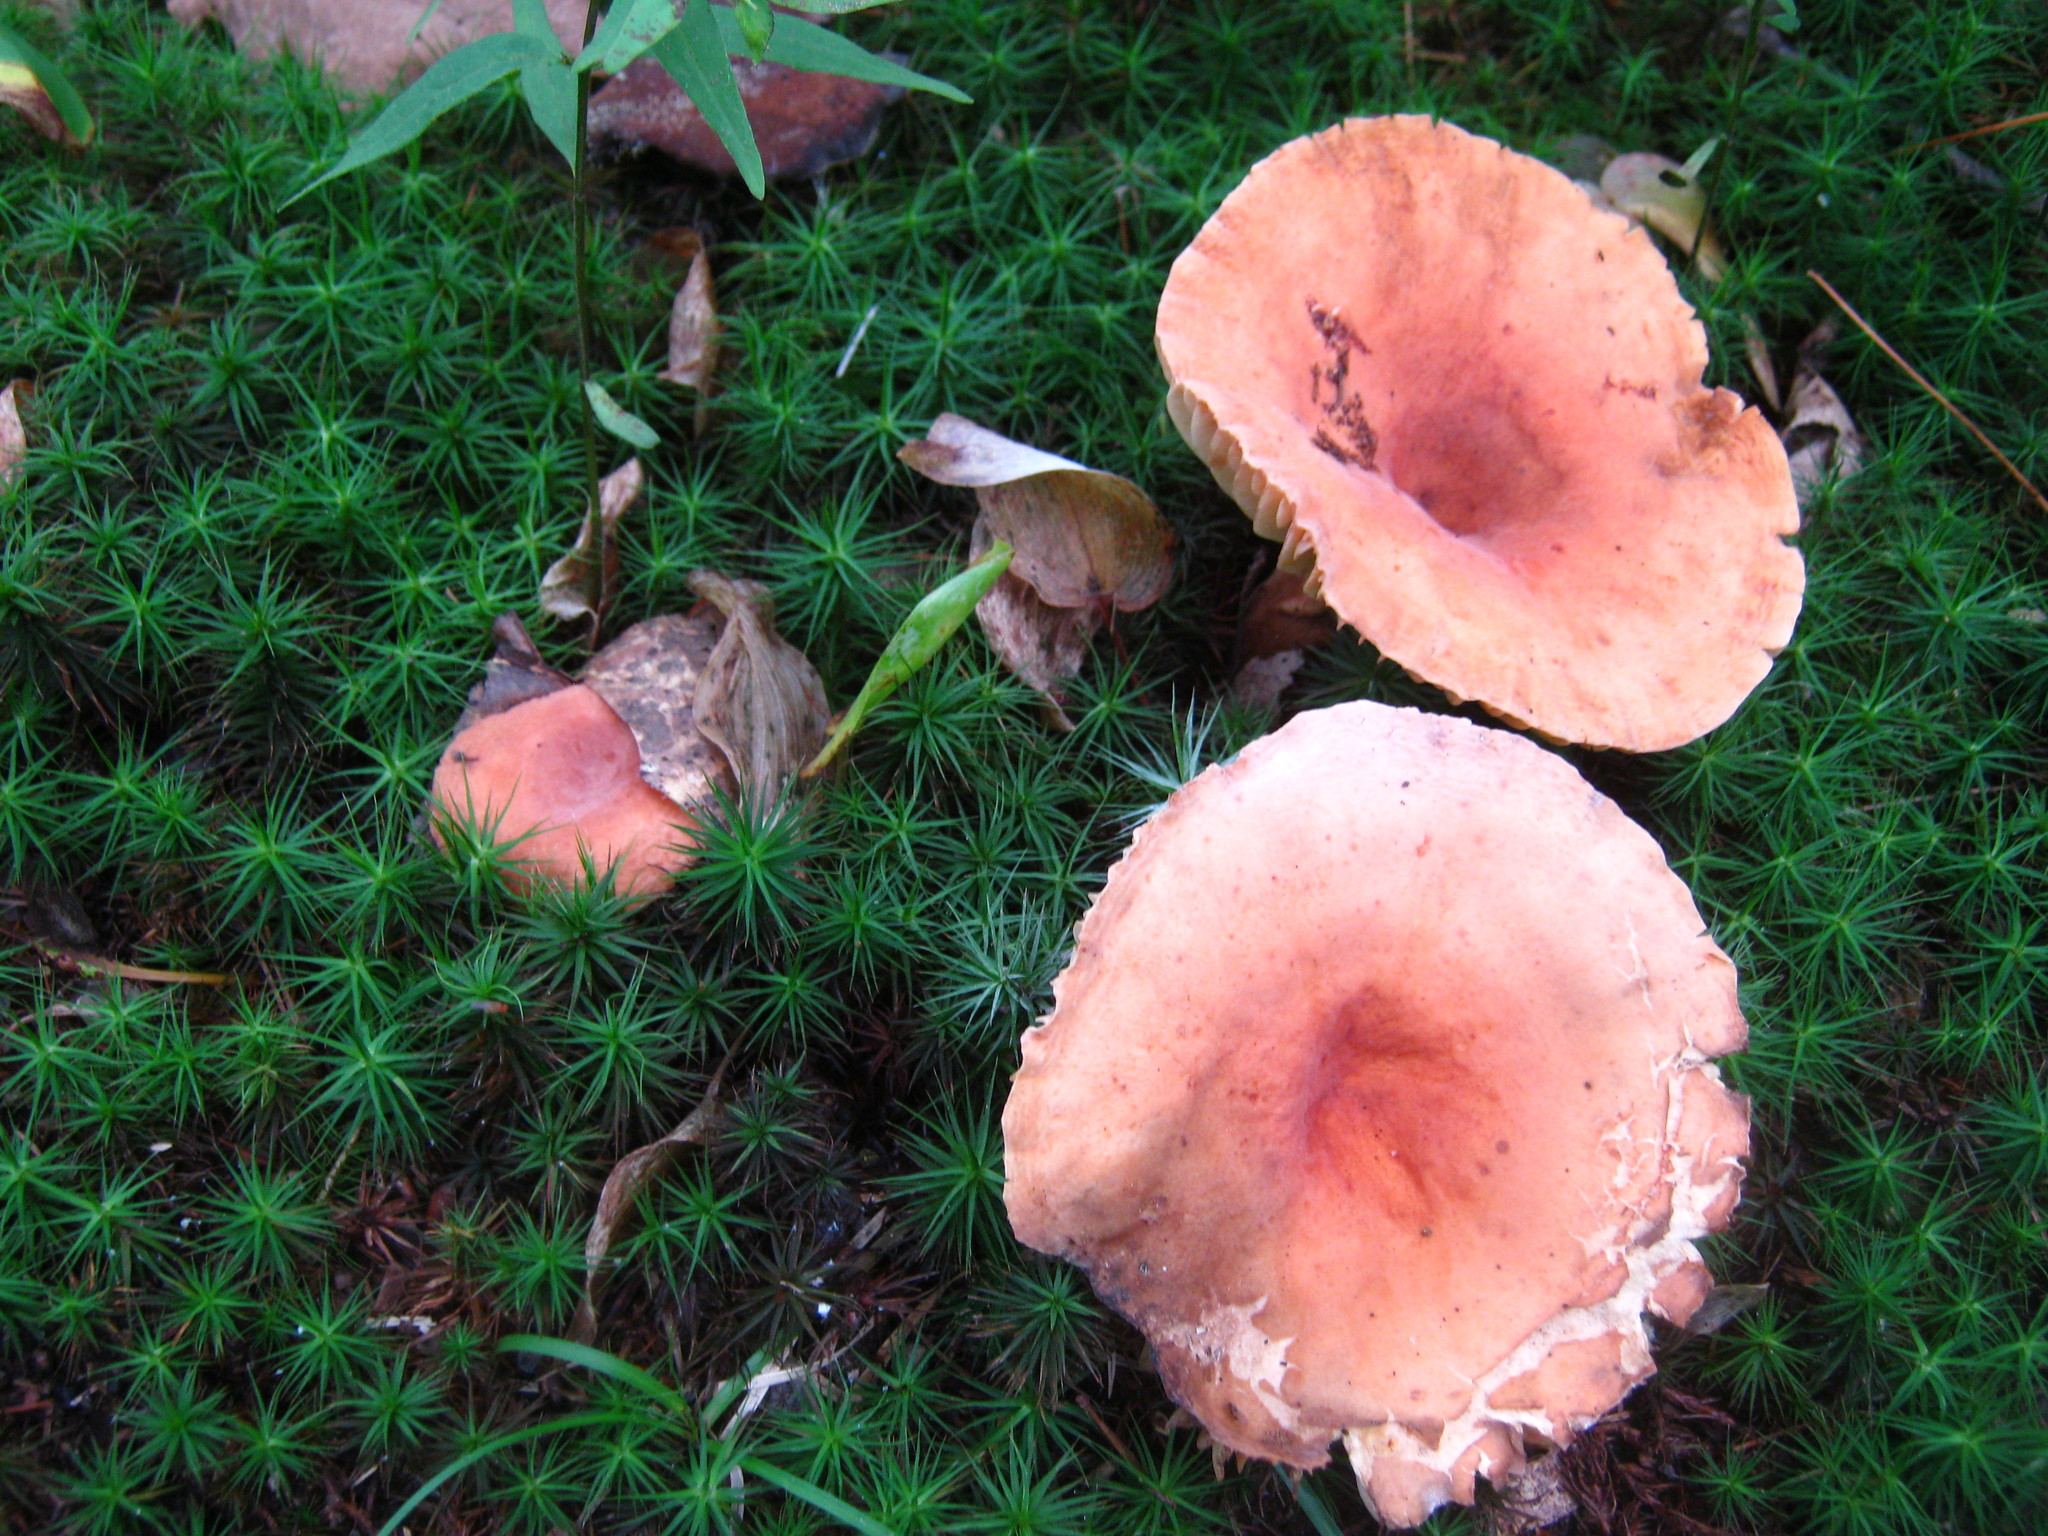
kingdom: Fungi
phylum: Basidiomycota
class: Agaricomycetes
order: Russulales
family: Russulaceae
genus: Lactarius
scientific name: Lactarius hygrophoroides
